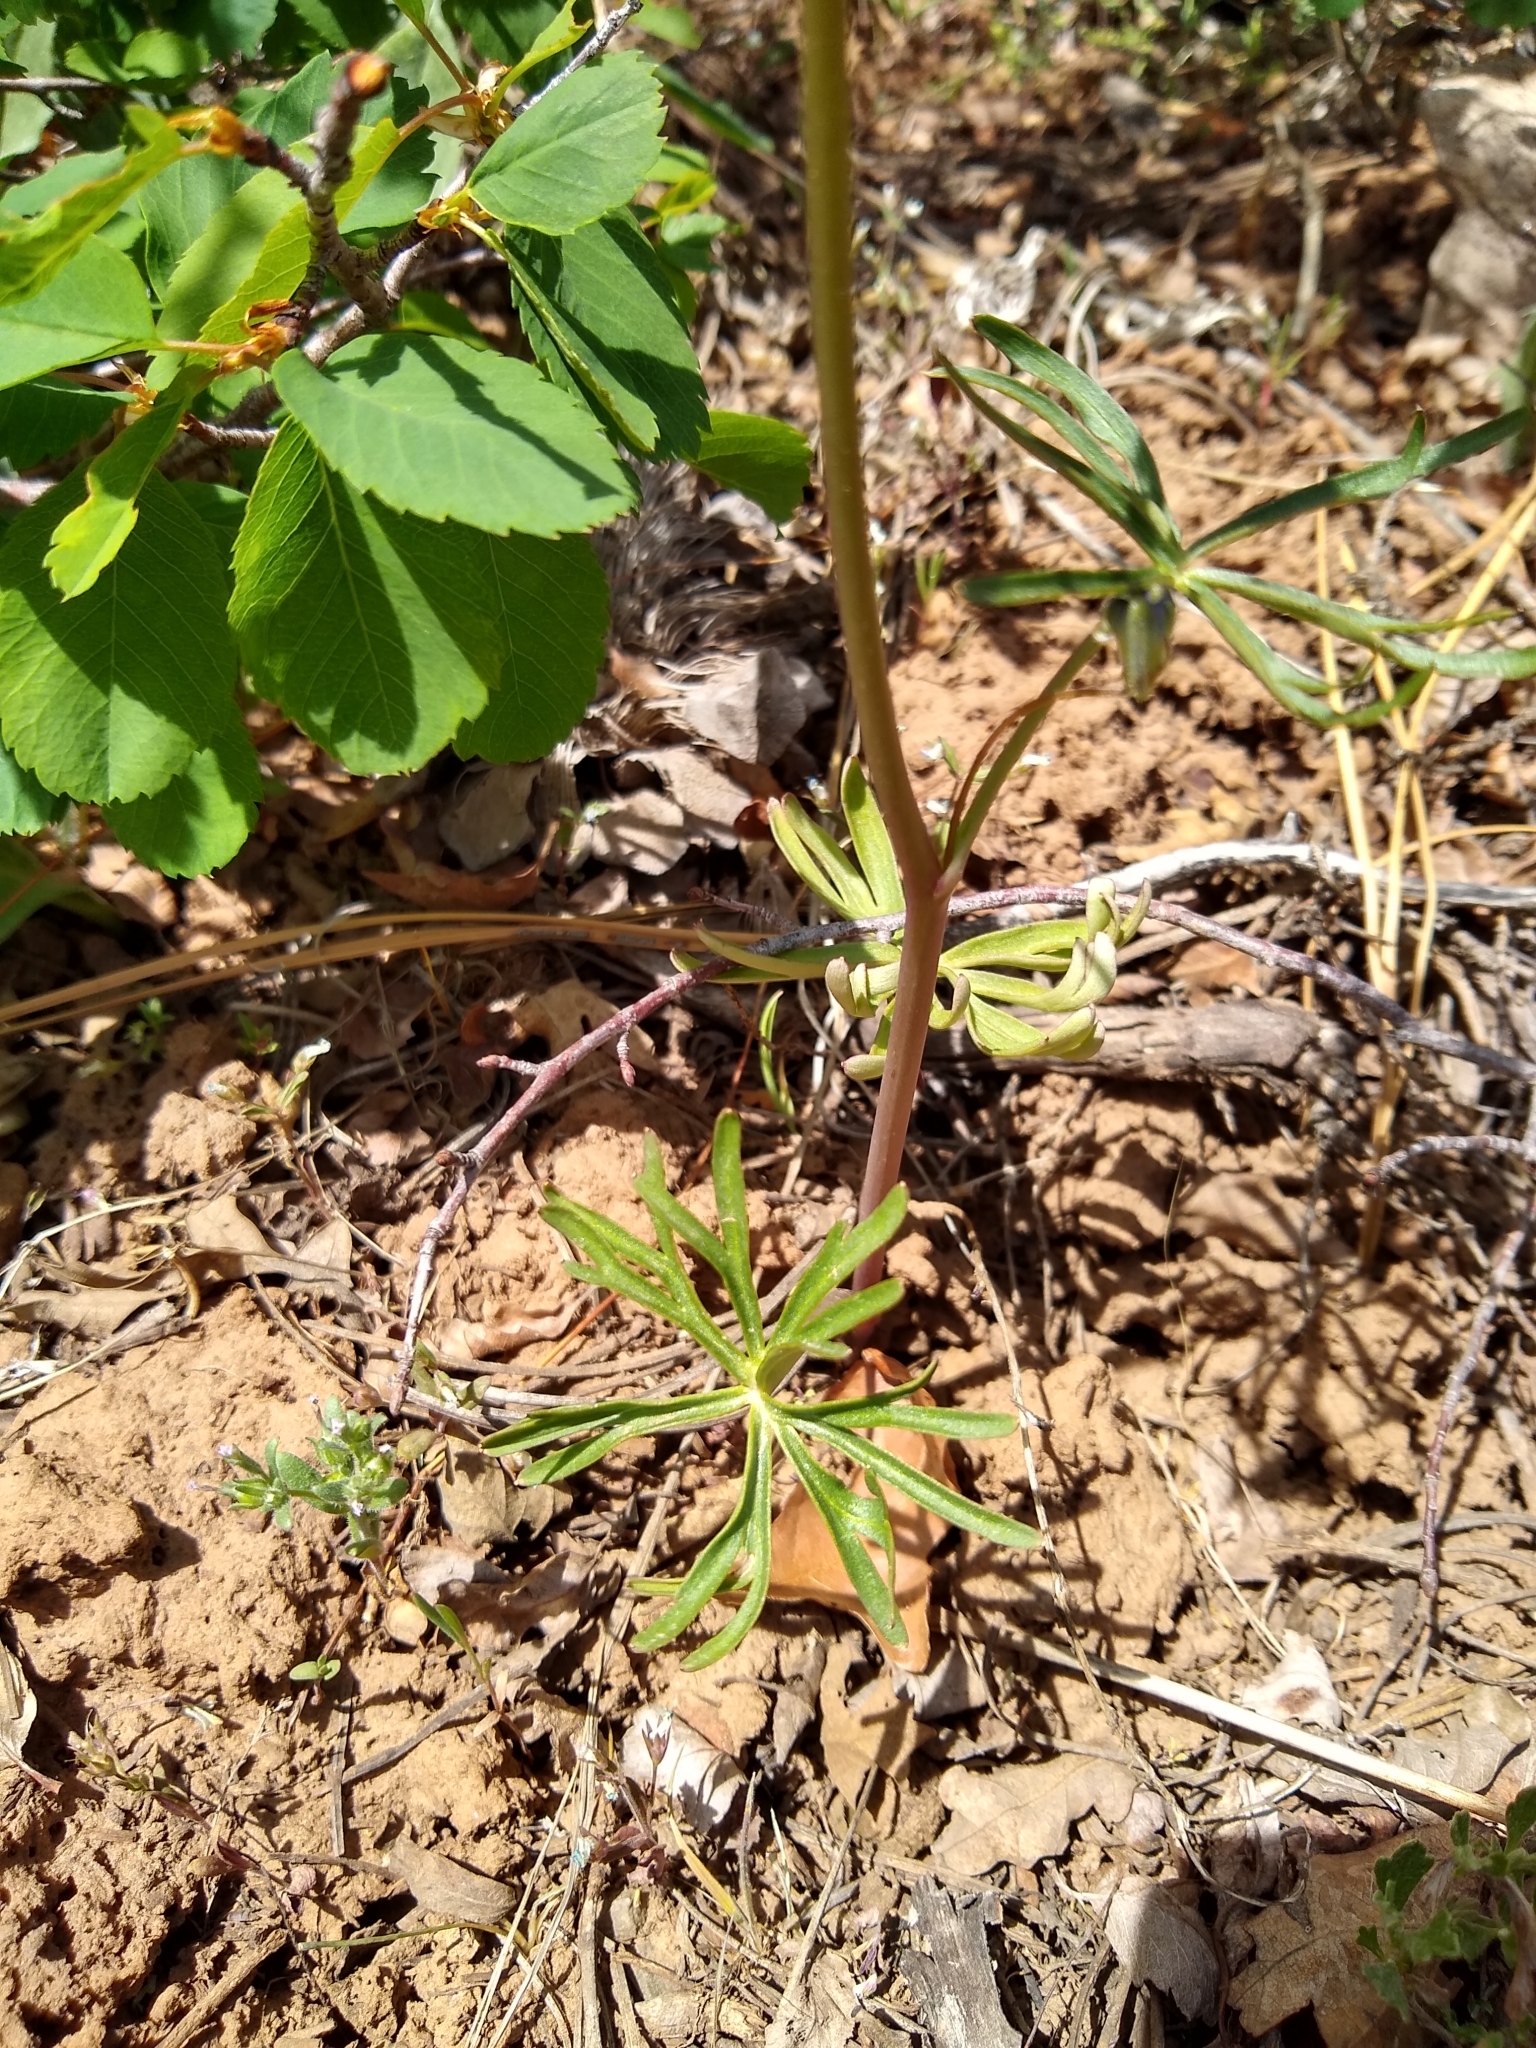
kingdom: Plantae
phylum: Tracheophyta
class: Magnoliopsida
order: Ranunculales
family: Ranunculaceae
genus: Delphinium
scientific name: Delphinium nuttallianum
